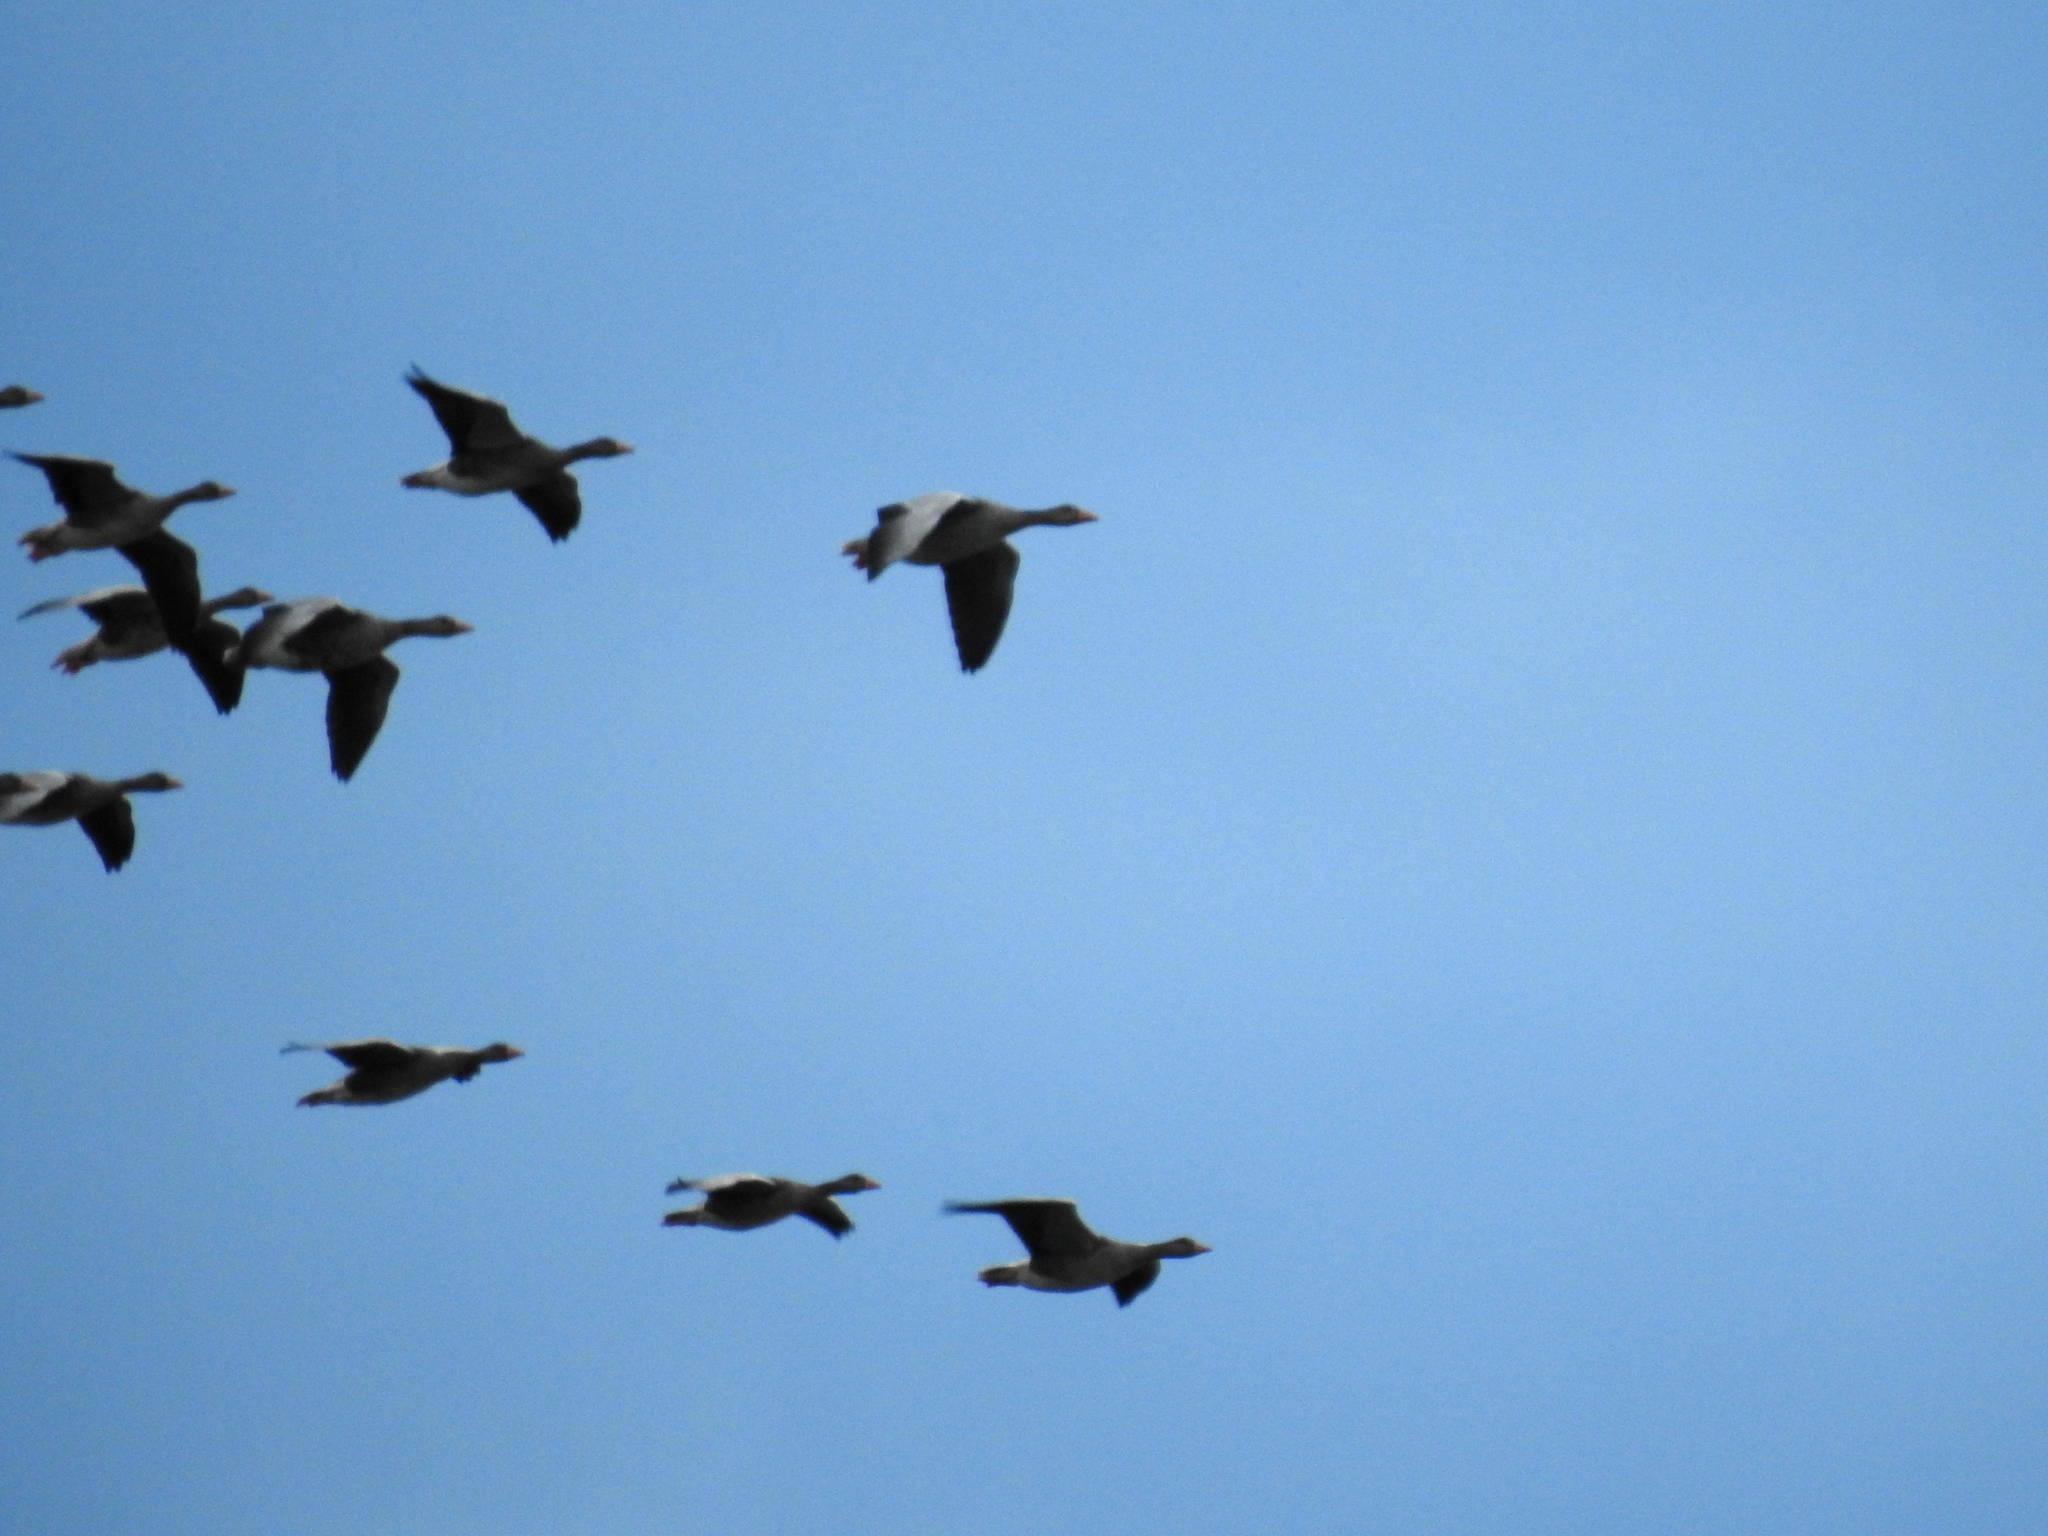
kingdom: Animalia
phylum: Chordata
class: Aves
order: Anseriformes
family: Anatidae
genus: Anser
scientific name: Anser anser
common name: Greylag goose
